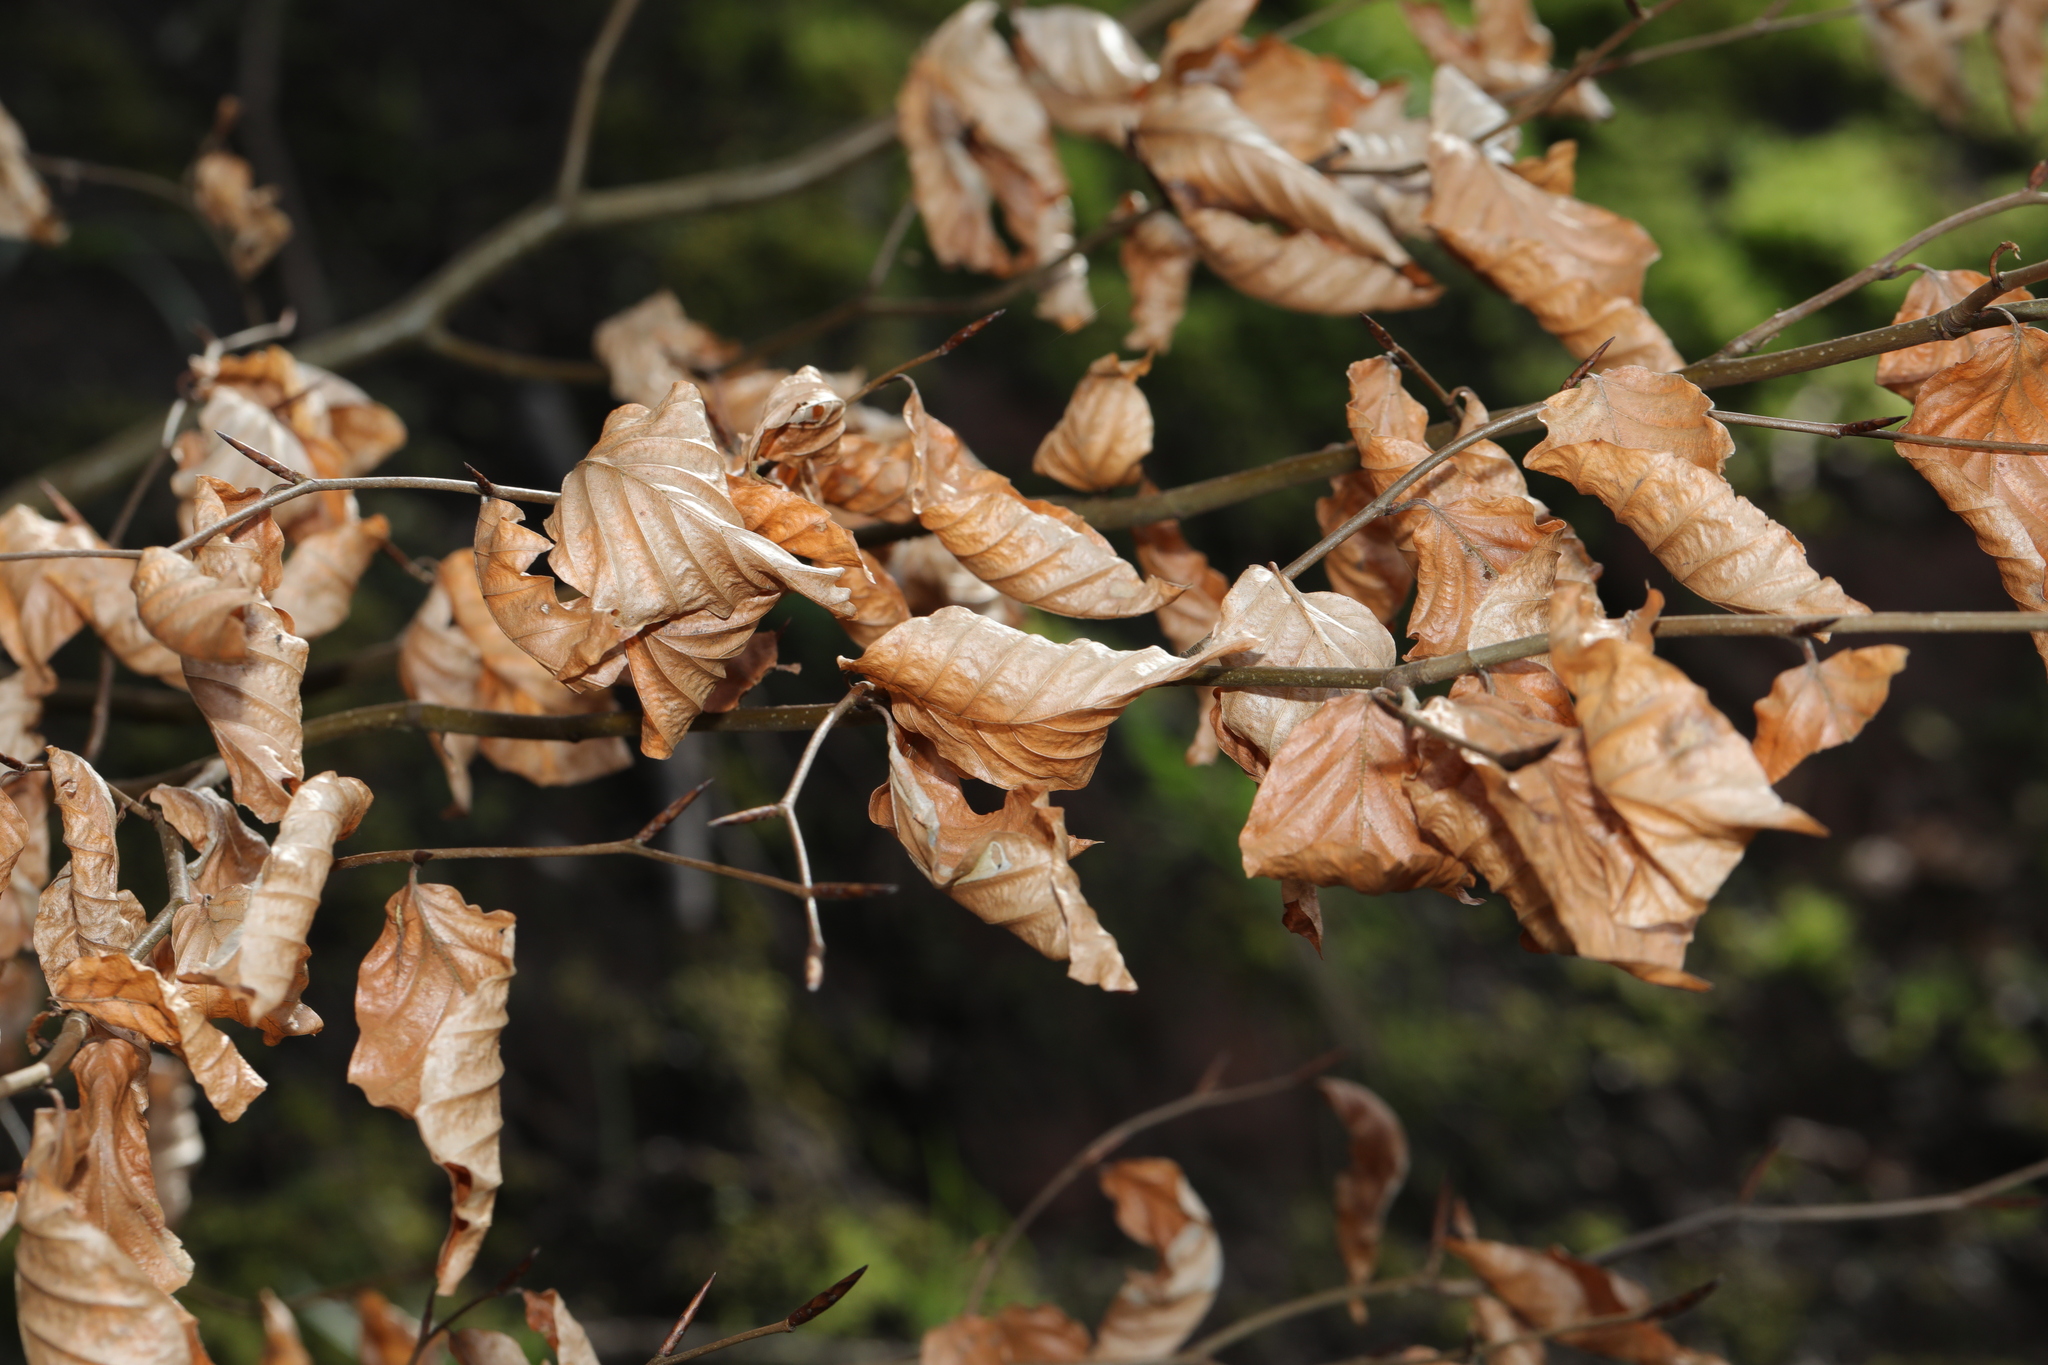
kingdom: Plantae
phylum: Tracheophyta
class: Magnoliopsida
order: Fagales
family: Fagaceae
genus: Fagus
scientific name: Fagus sylvatica
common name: Beech
